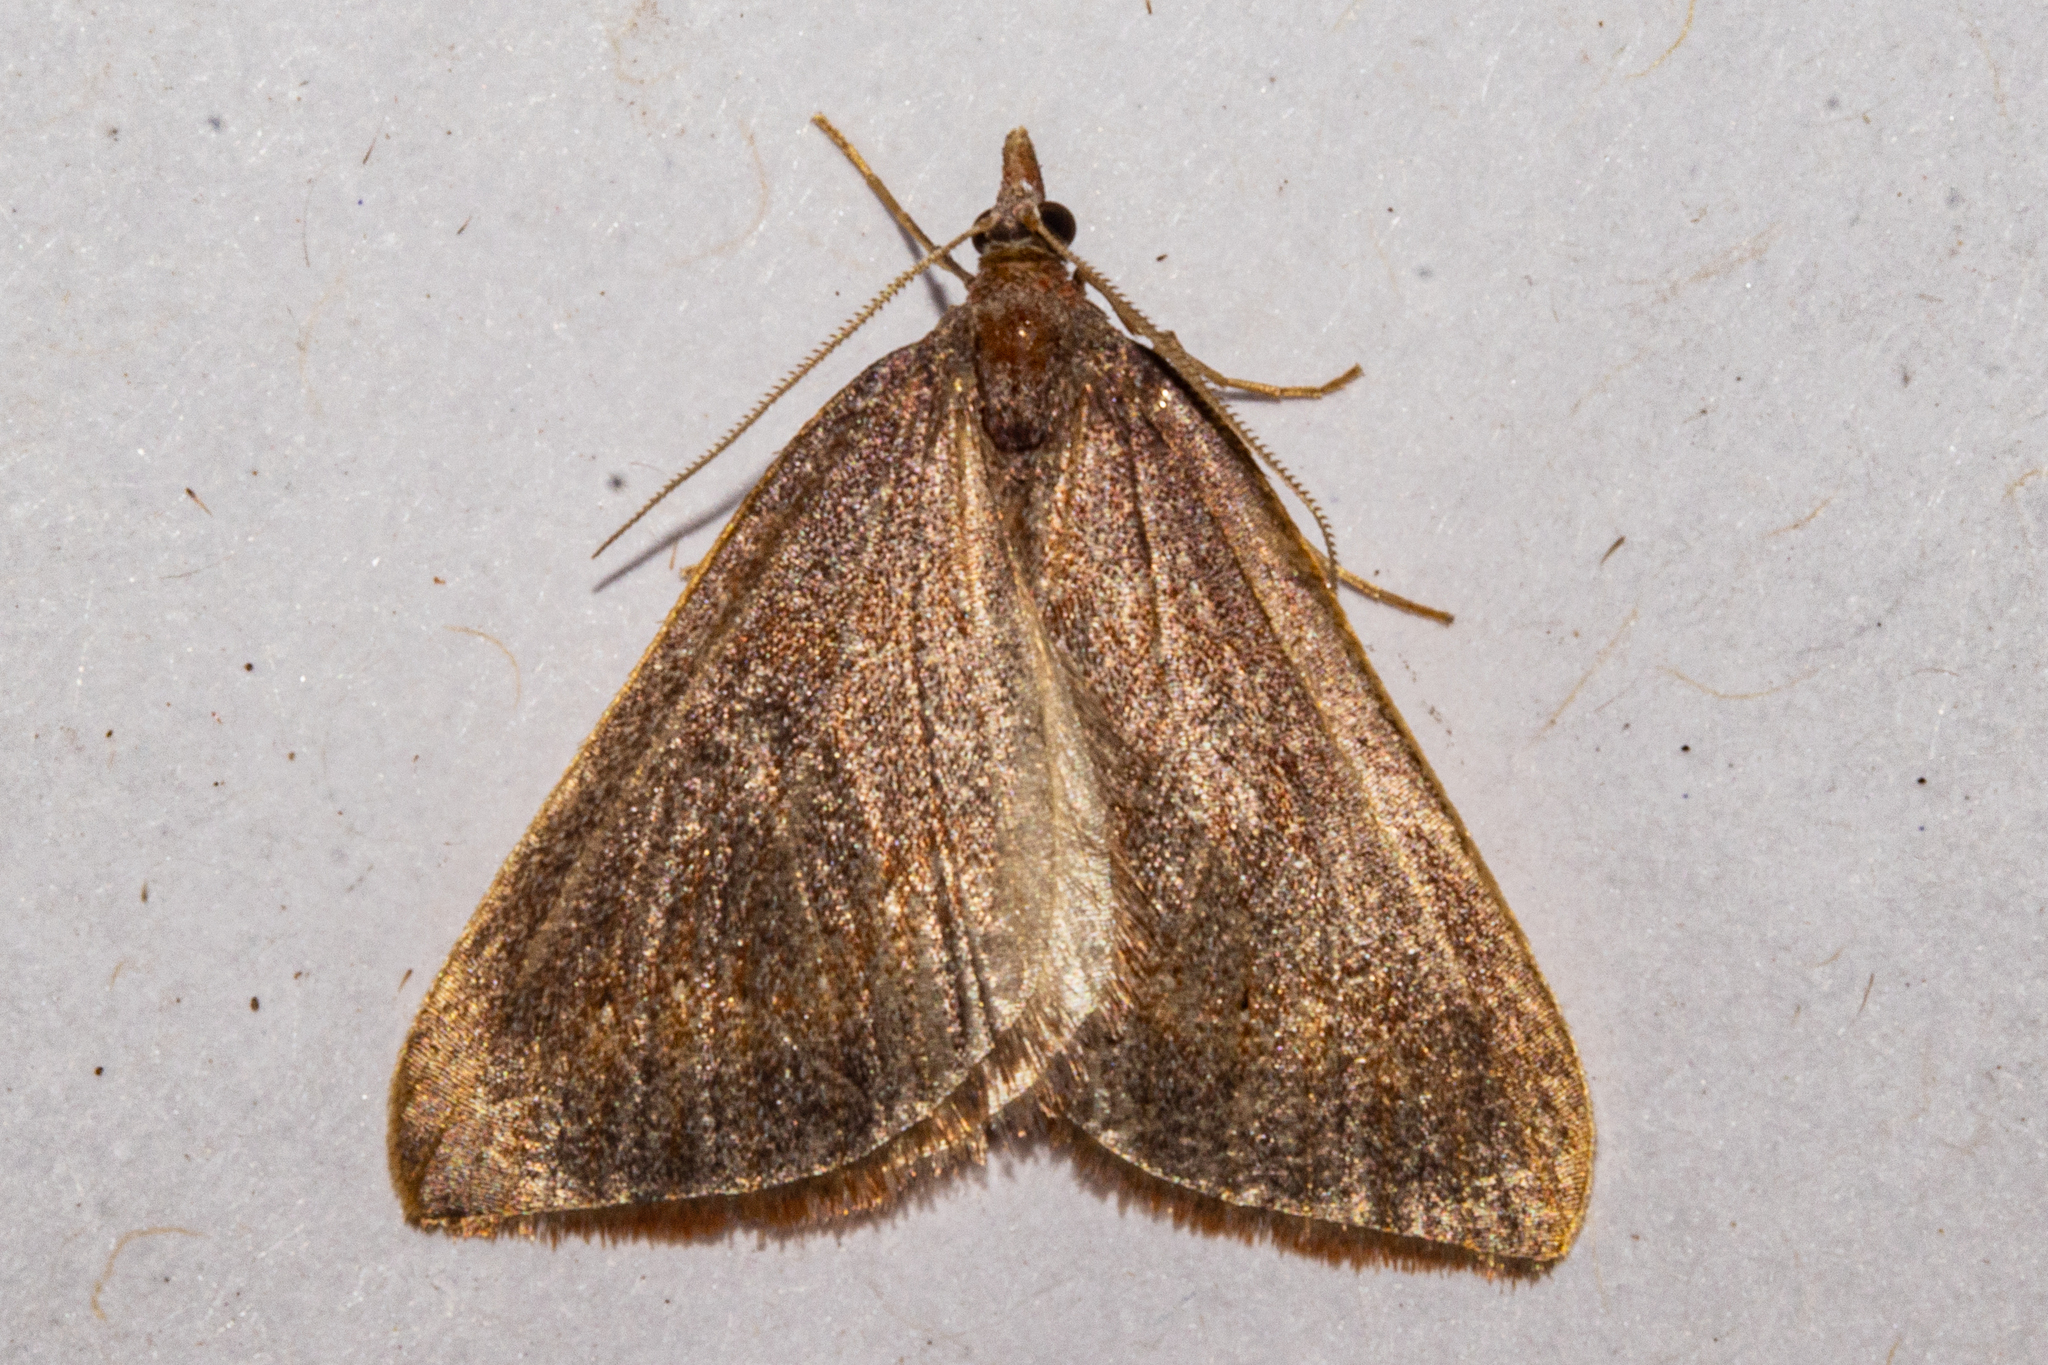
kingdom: Animalia
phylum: Arthropoda
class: Insecta
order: Lepidoptera
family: Geometridae
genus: Xanthorhoe
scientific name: Xanthorhoe occulta
